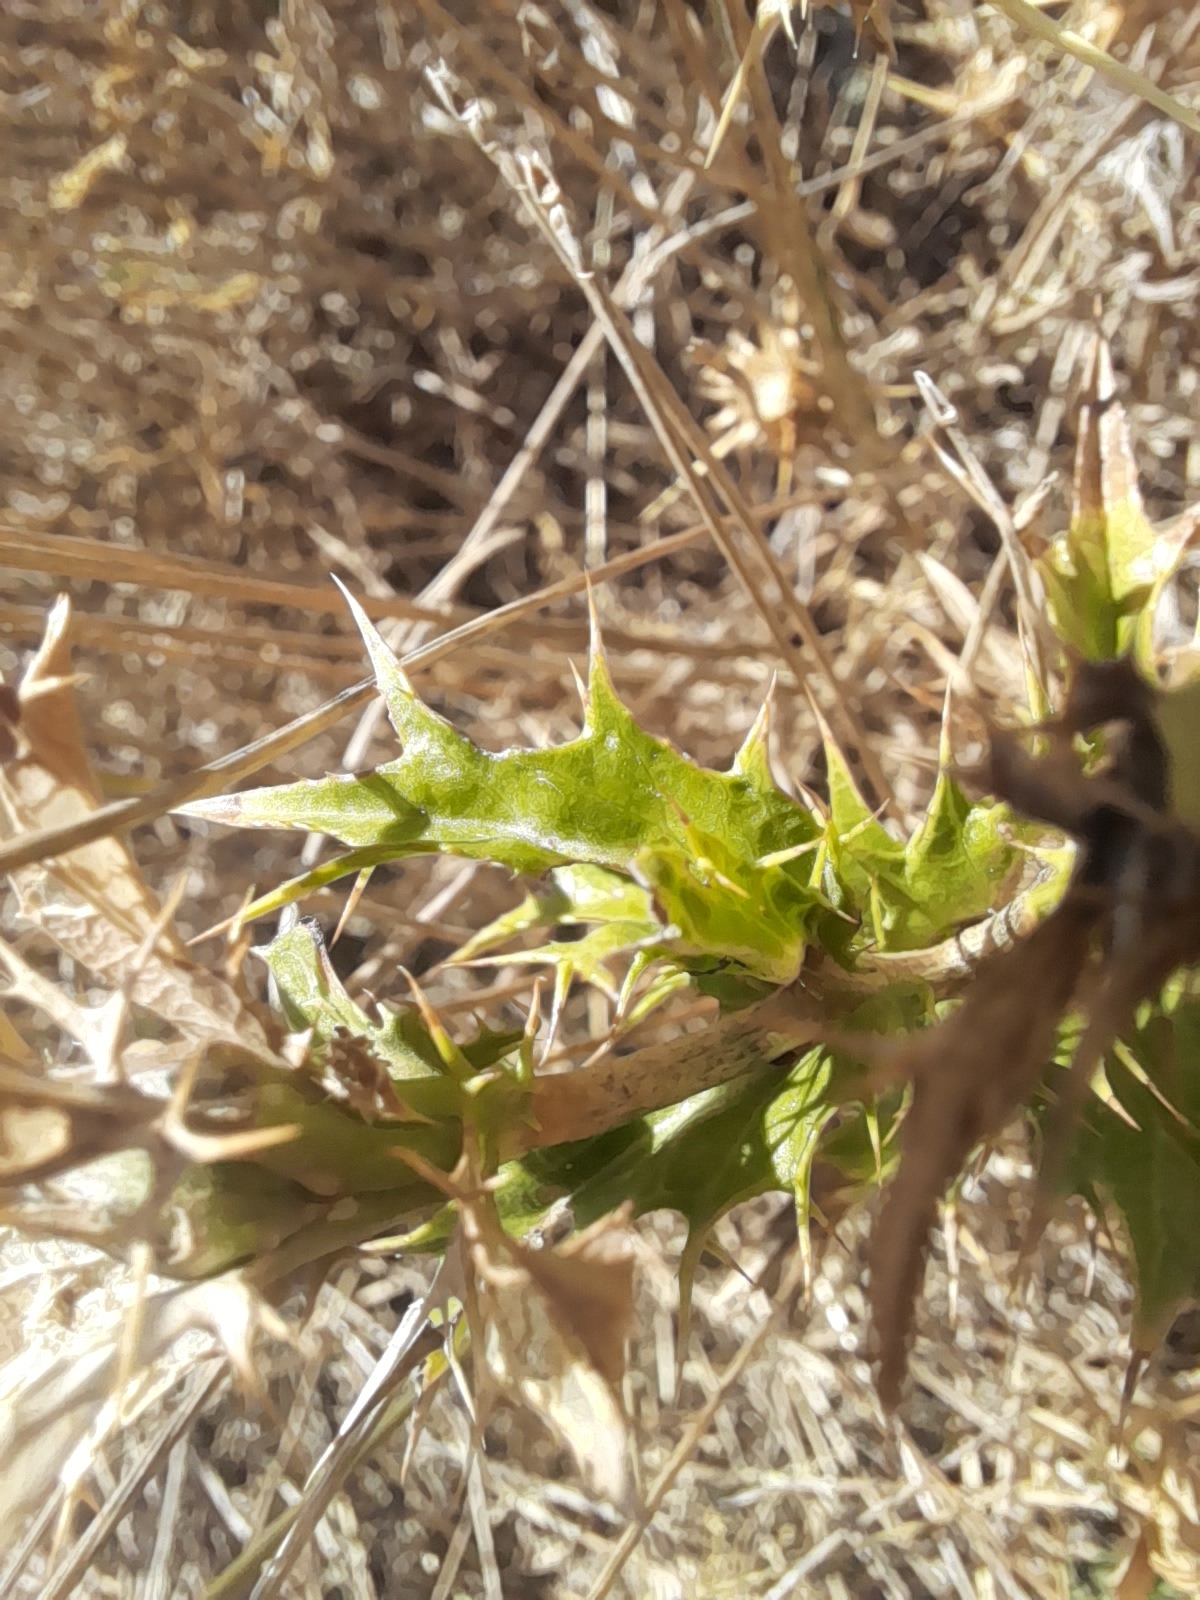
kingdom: Plantae
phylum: Tracheophyta
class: Magnoliopsida
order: Asterales
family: Asteraceae
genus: Carlina
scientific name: Carlina corymbosa
